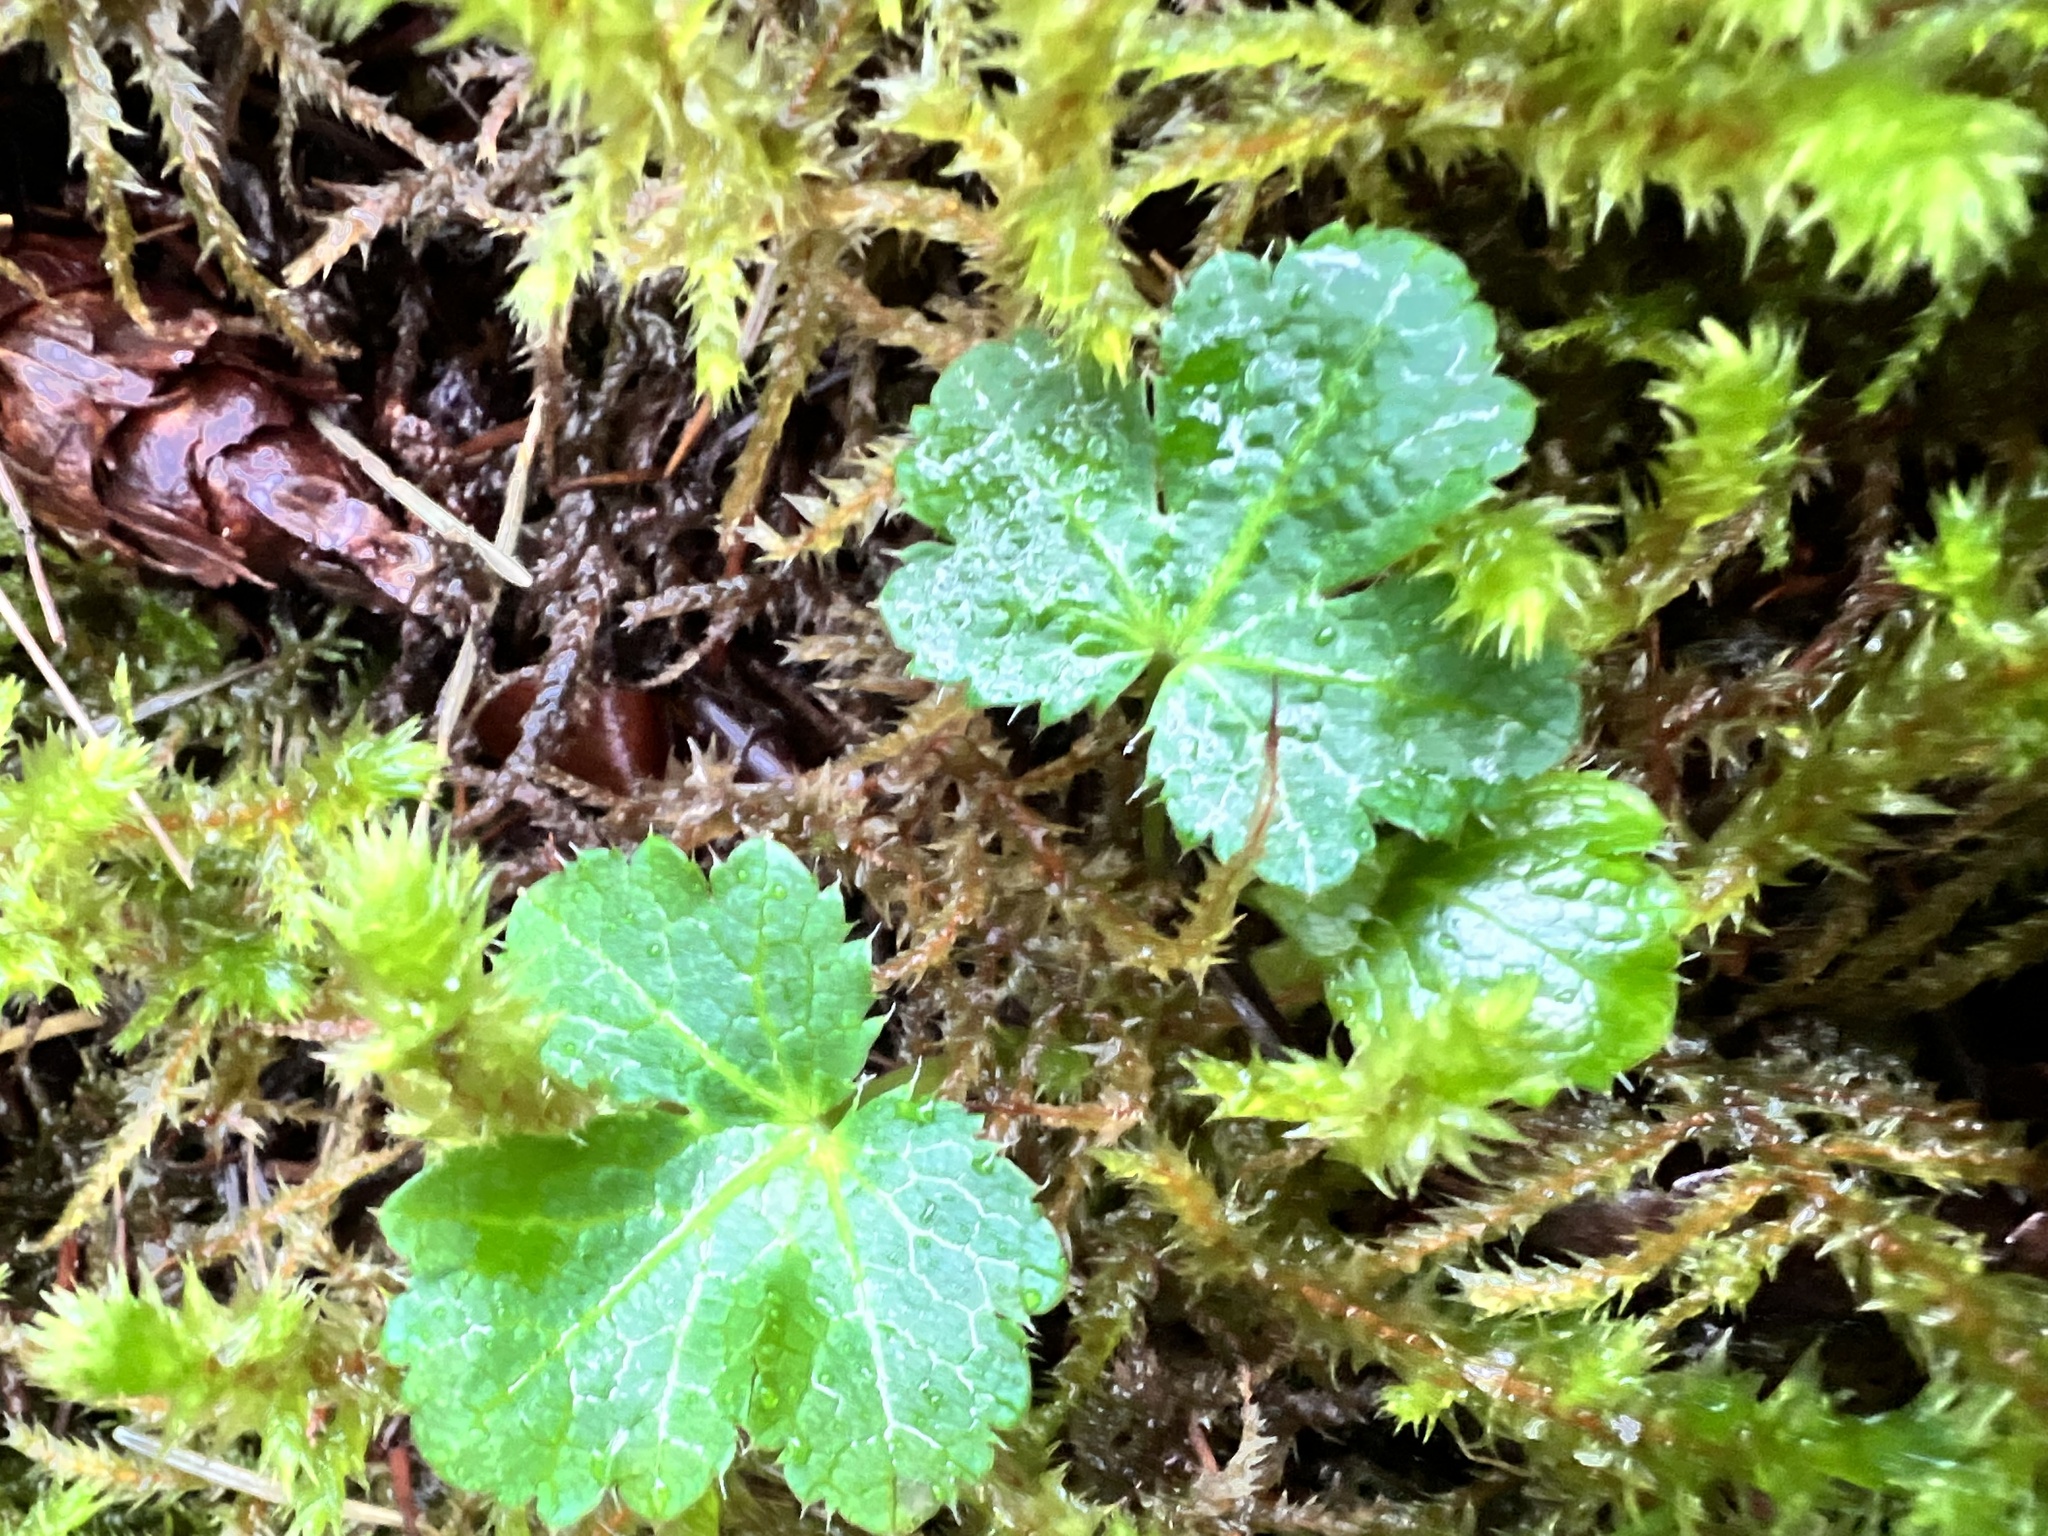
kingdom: Plantae
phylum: Tracheophyta
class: Magnoliopsida
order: Apiales
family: Apiaceae
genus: Sanicula
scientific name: Sanicula crassicaulis
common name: Western snakeroot
